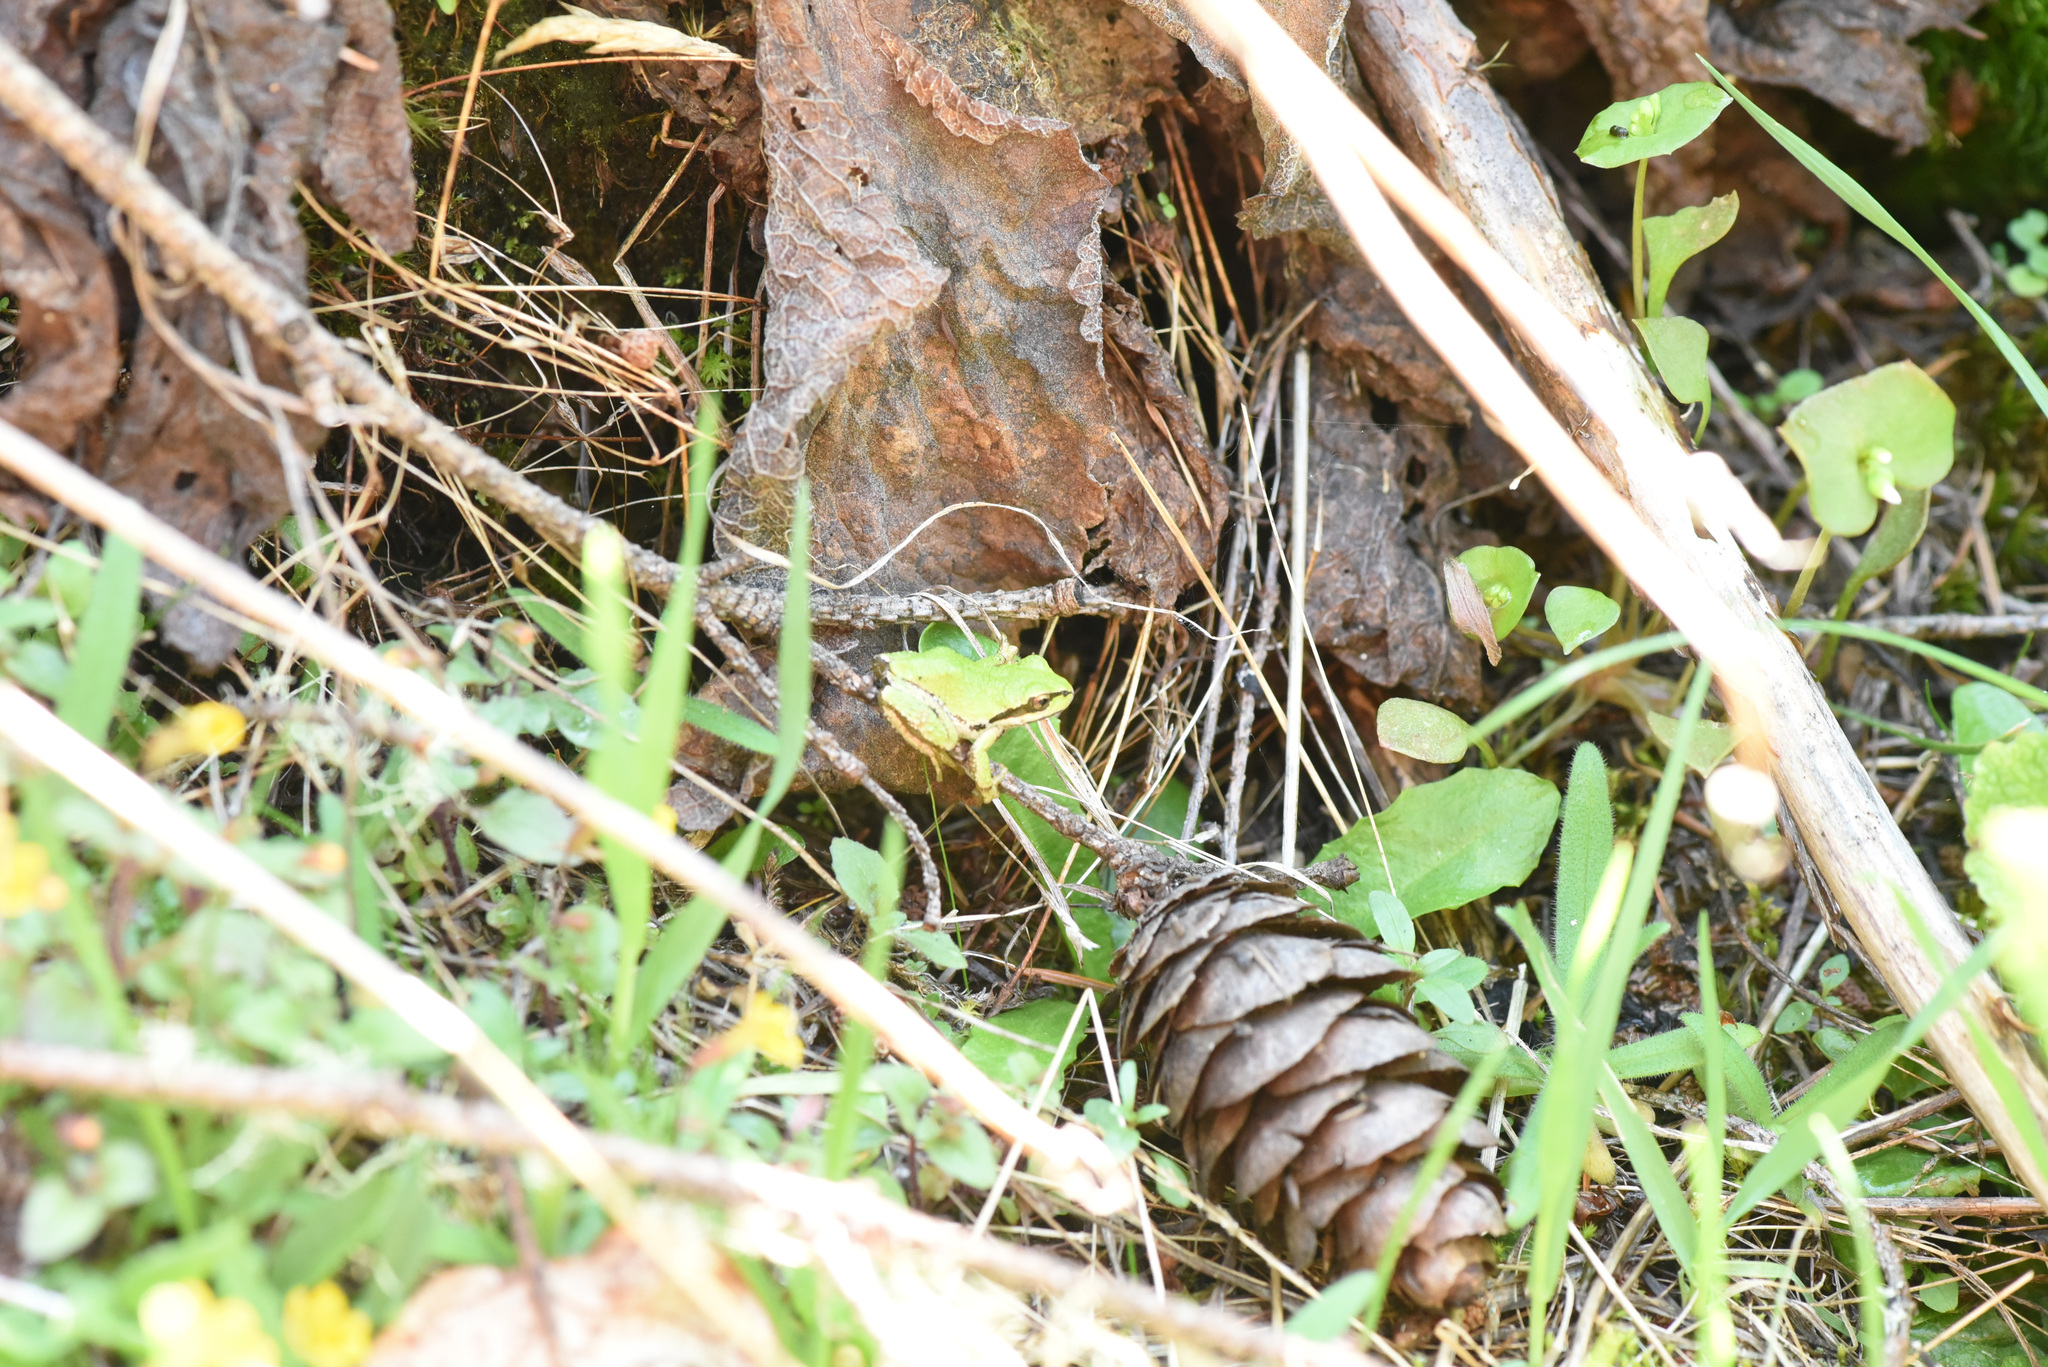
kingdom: Animalia
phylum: Chordata
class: Amphibia
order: Anura
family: Hylidae
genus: Pseudacris
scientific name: Pseudacris regilla
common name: Pacific chorus frog
